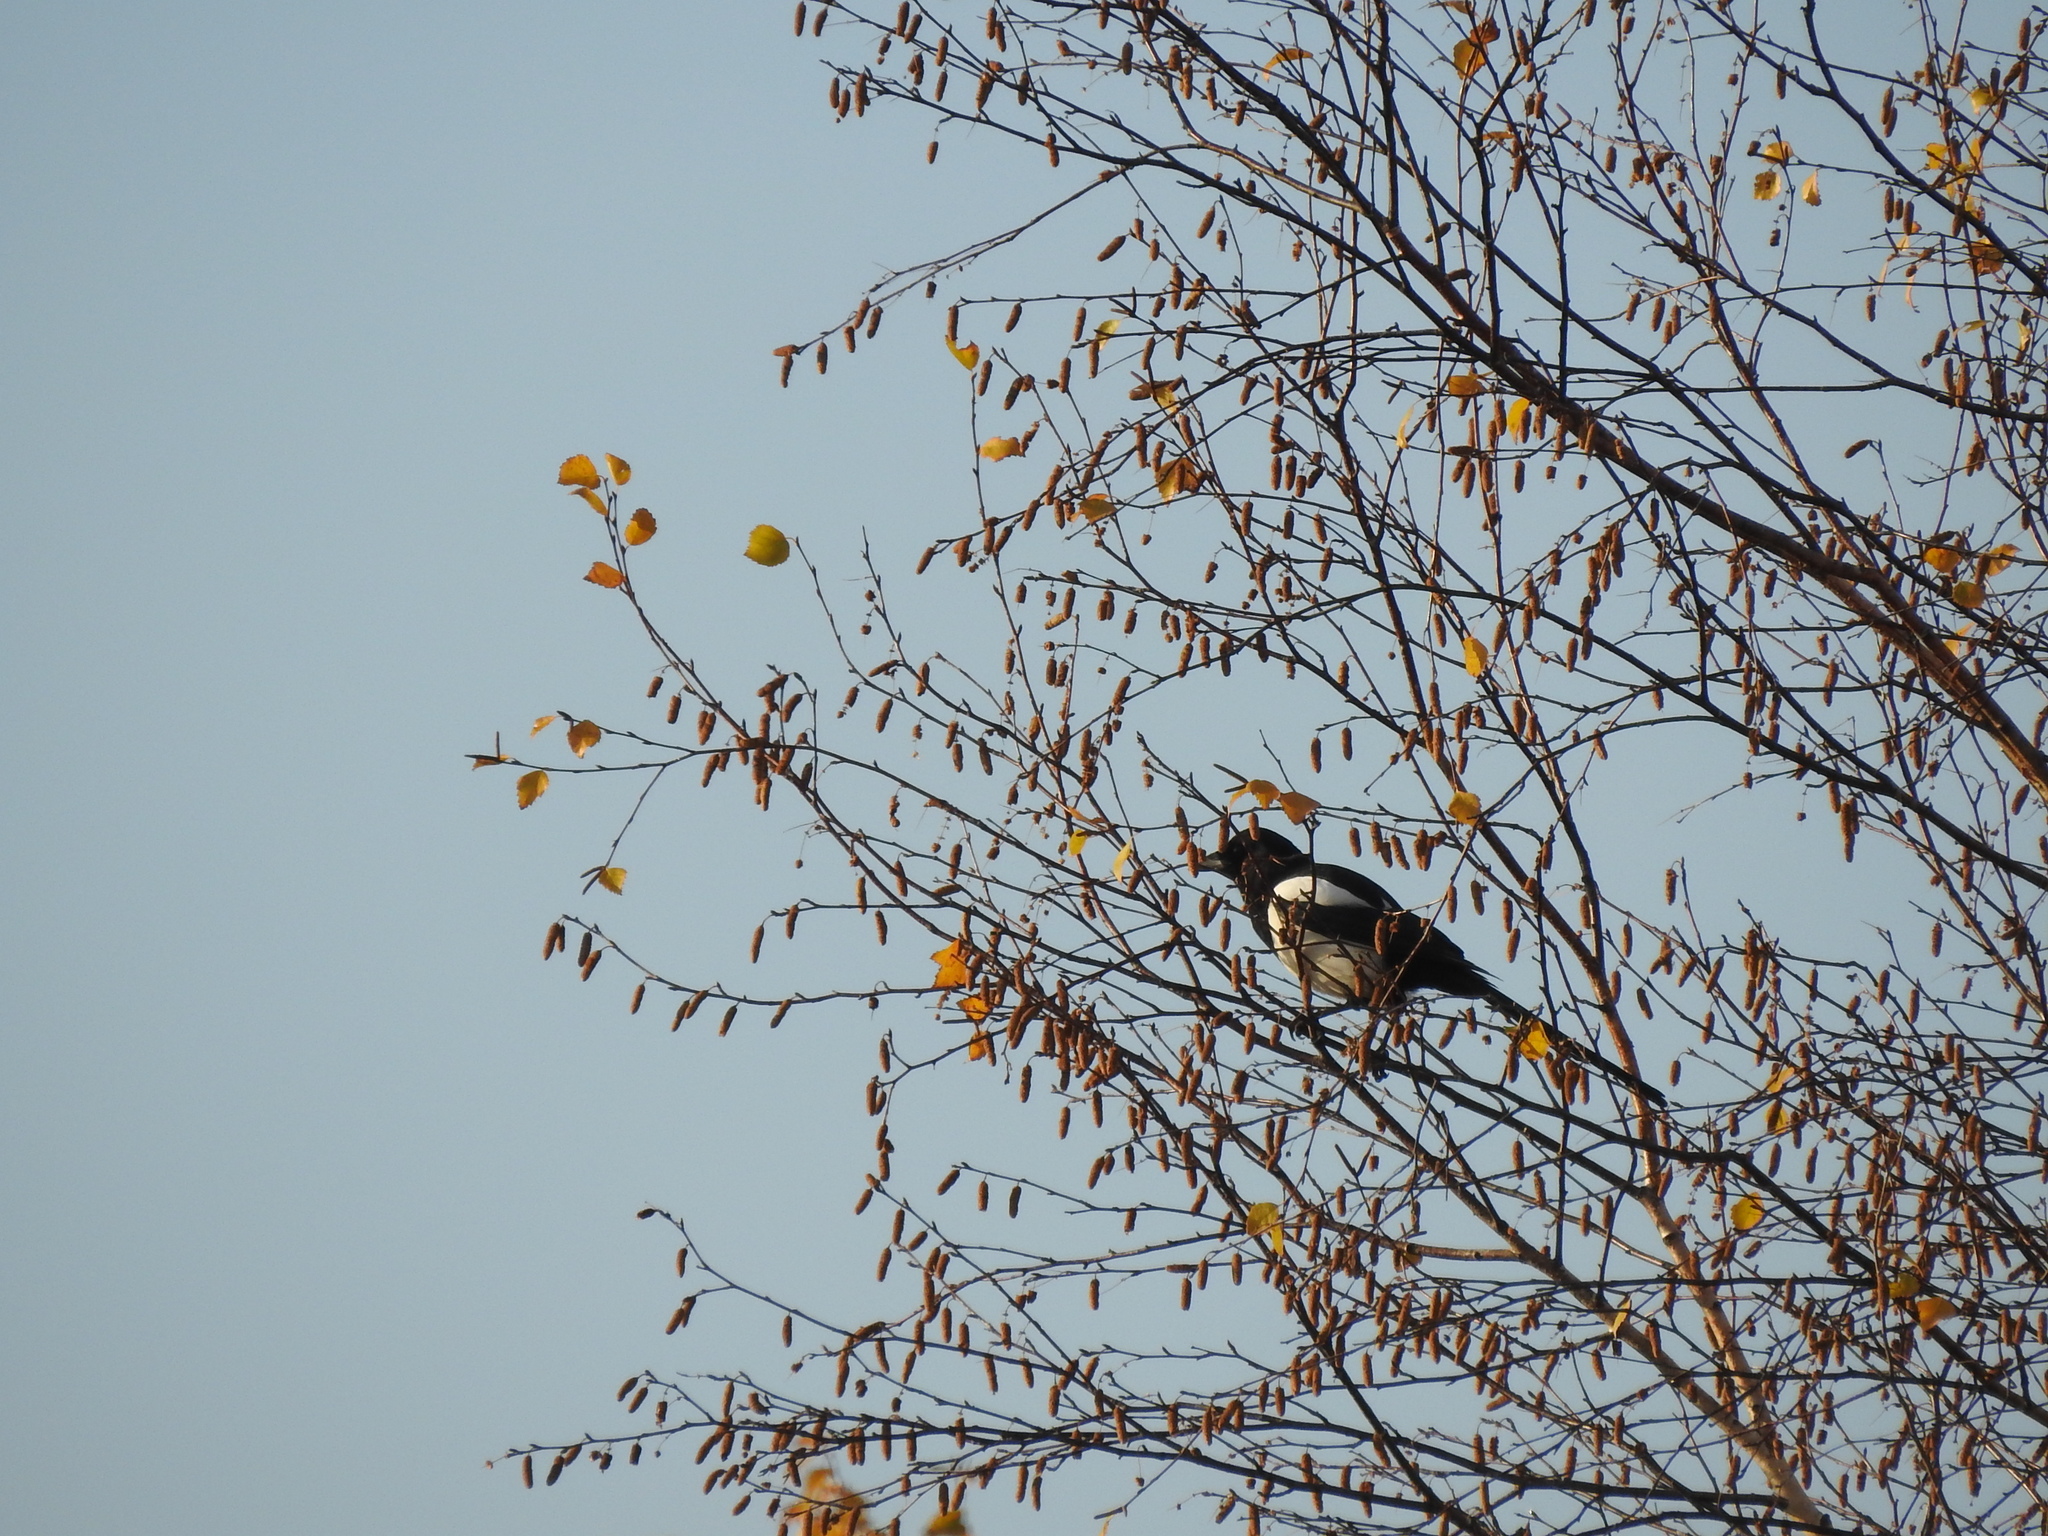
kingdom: Animalia
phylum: Chordata
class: Aves
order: Passeriformes
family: Corvidae
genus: Pica
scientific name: Pica pica
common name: Eurasian magpie
